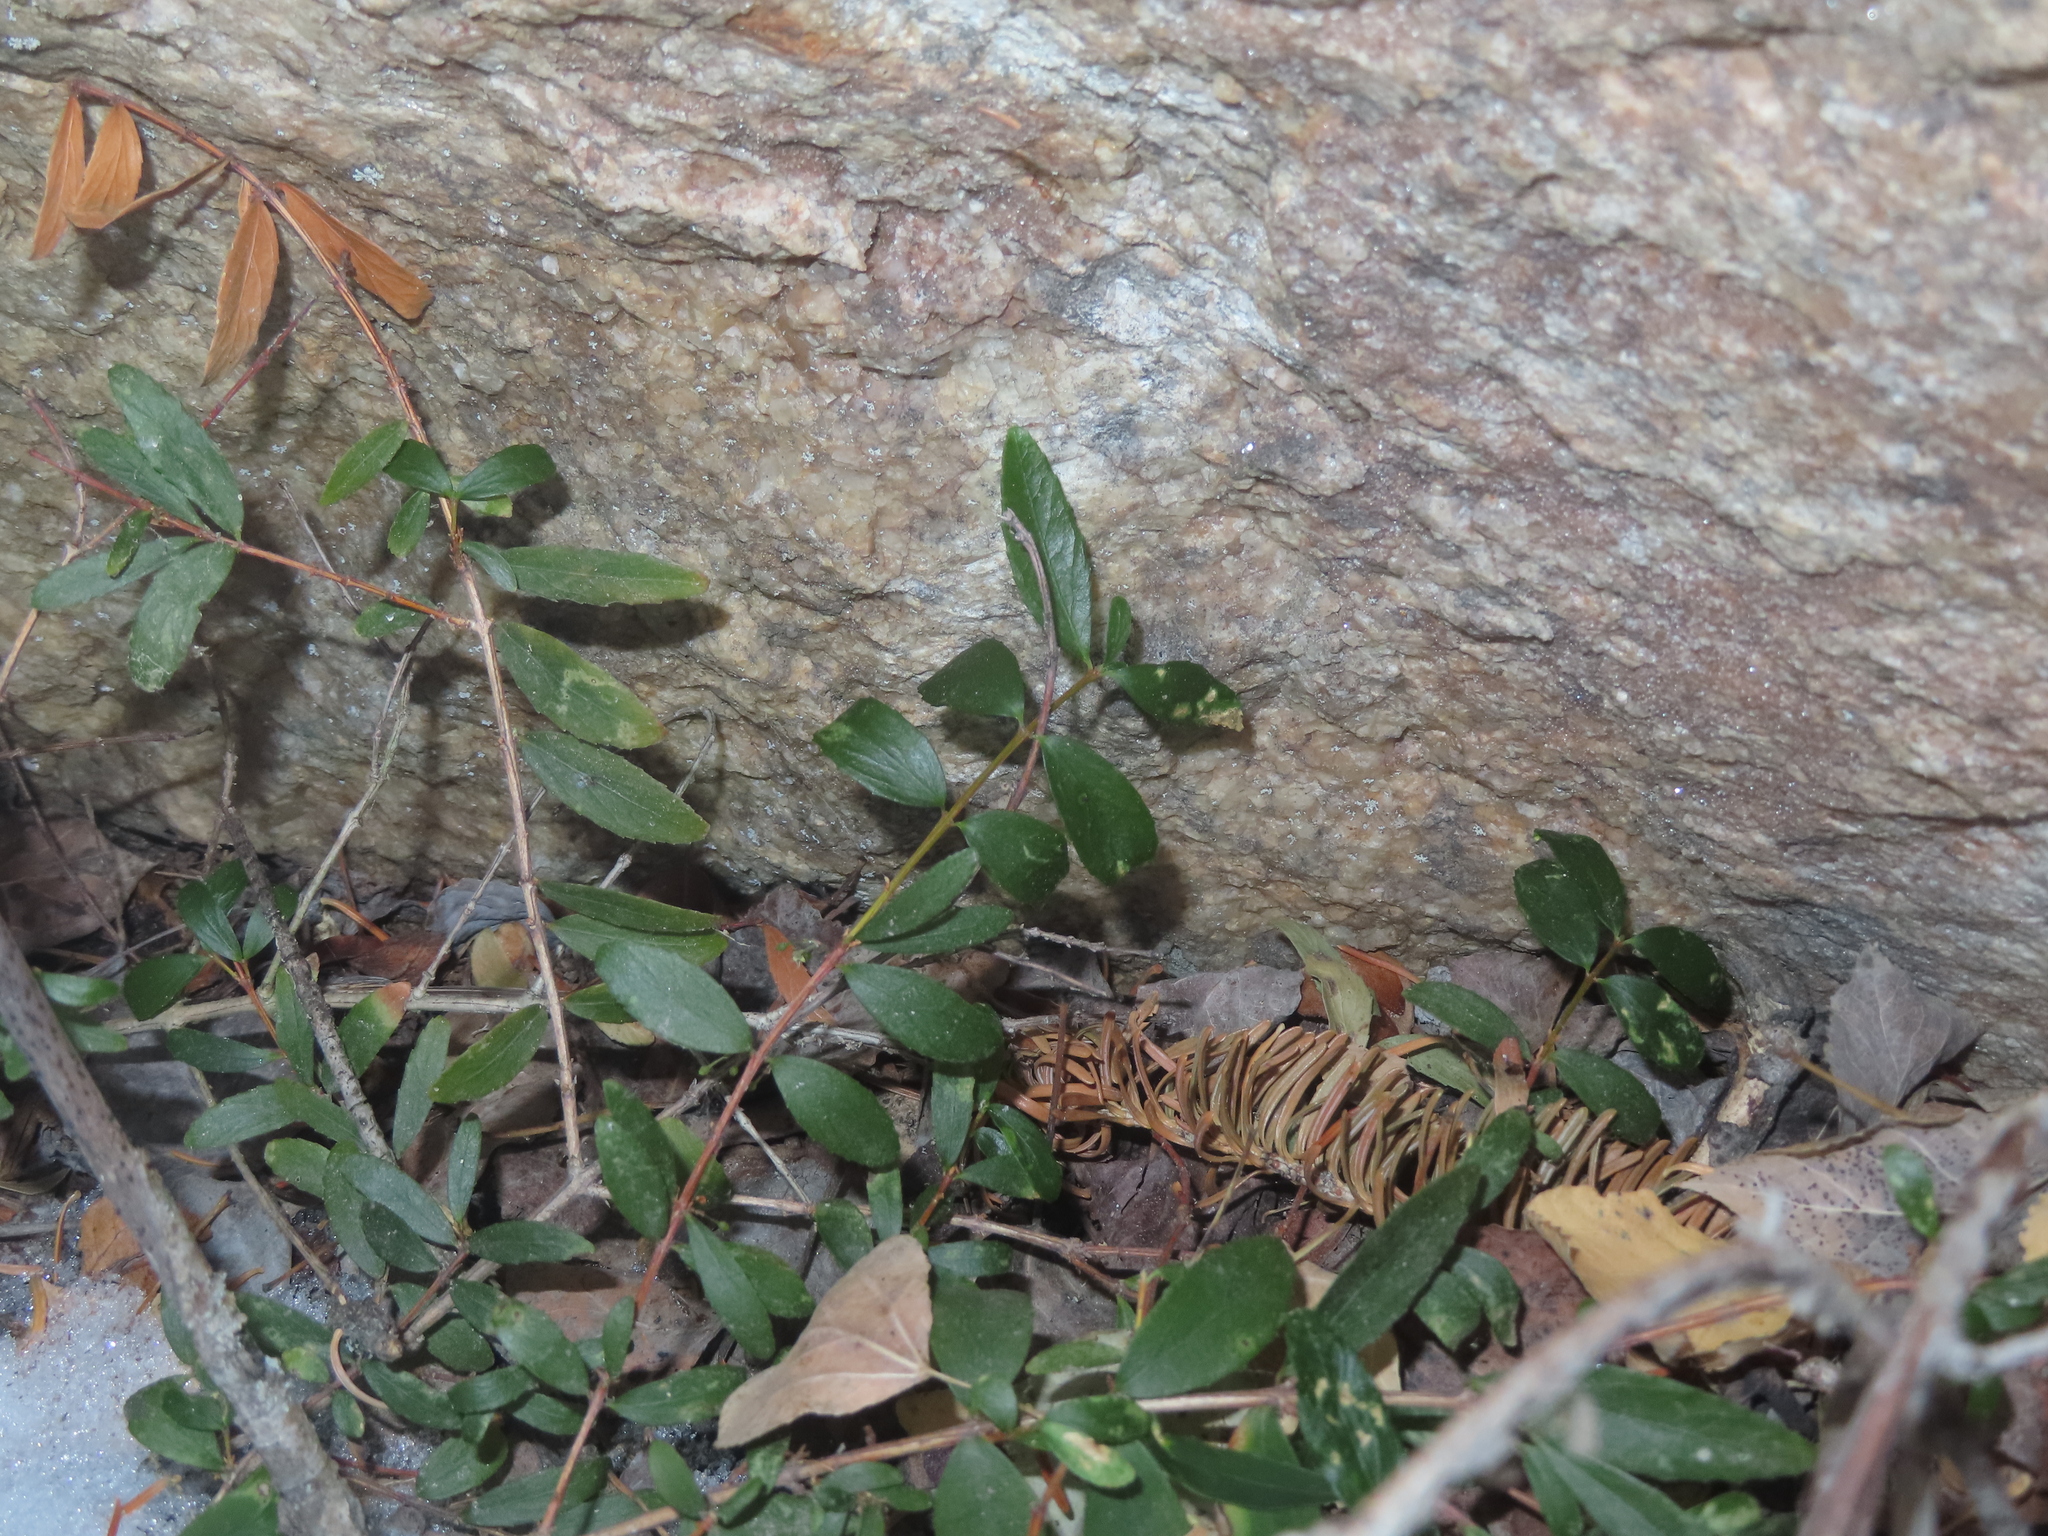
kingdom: Plantae
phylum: Tracheophyta
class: Magnoliopsida
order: Celastrales
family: Celastraceae
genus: Paxistima
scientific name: Paxistima myrsinites
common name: Mountain-lover
